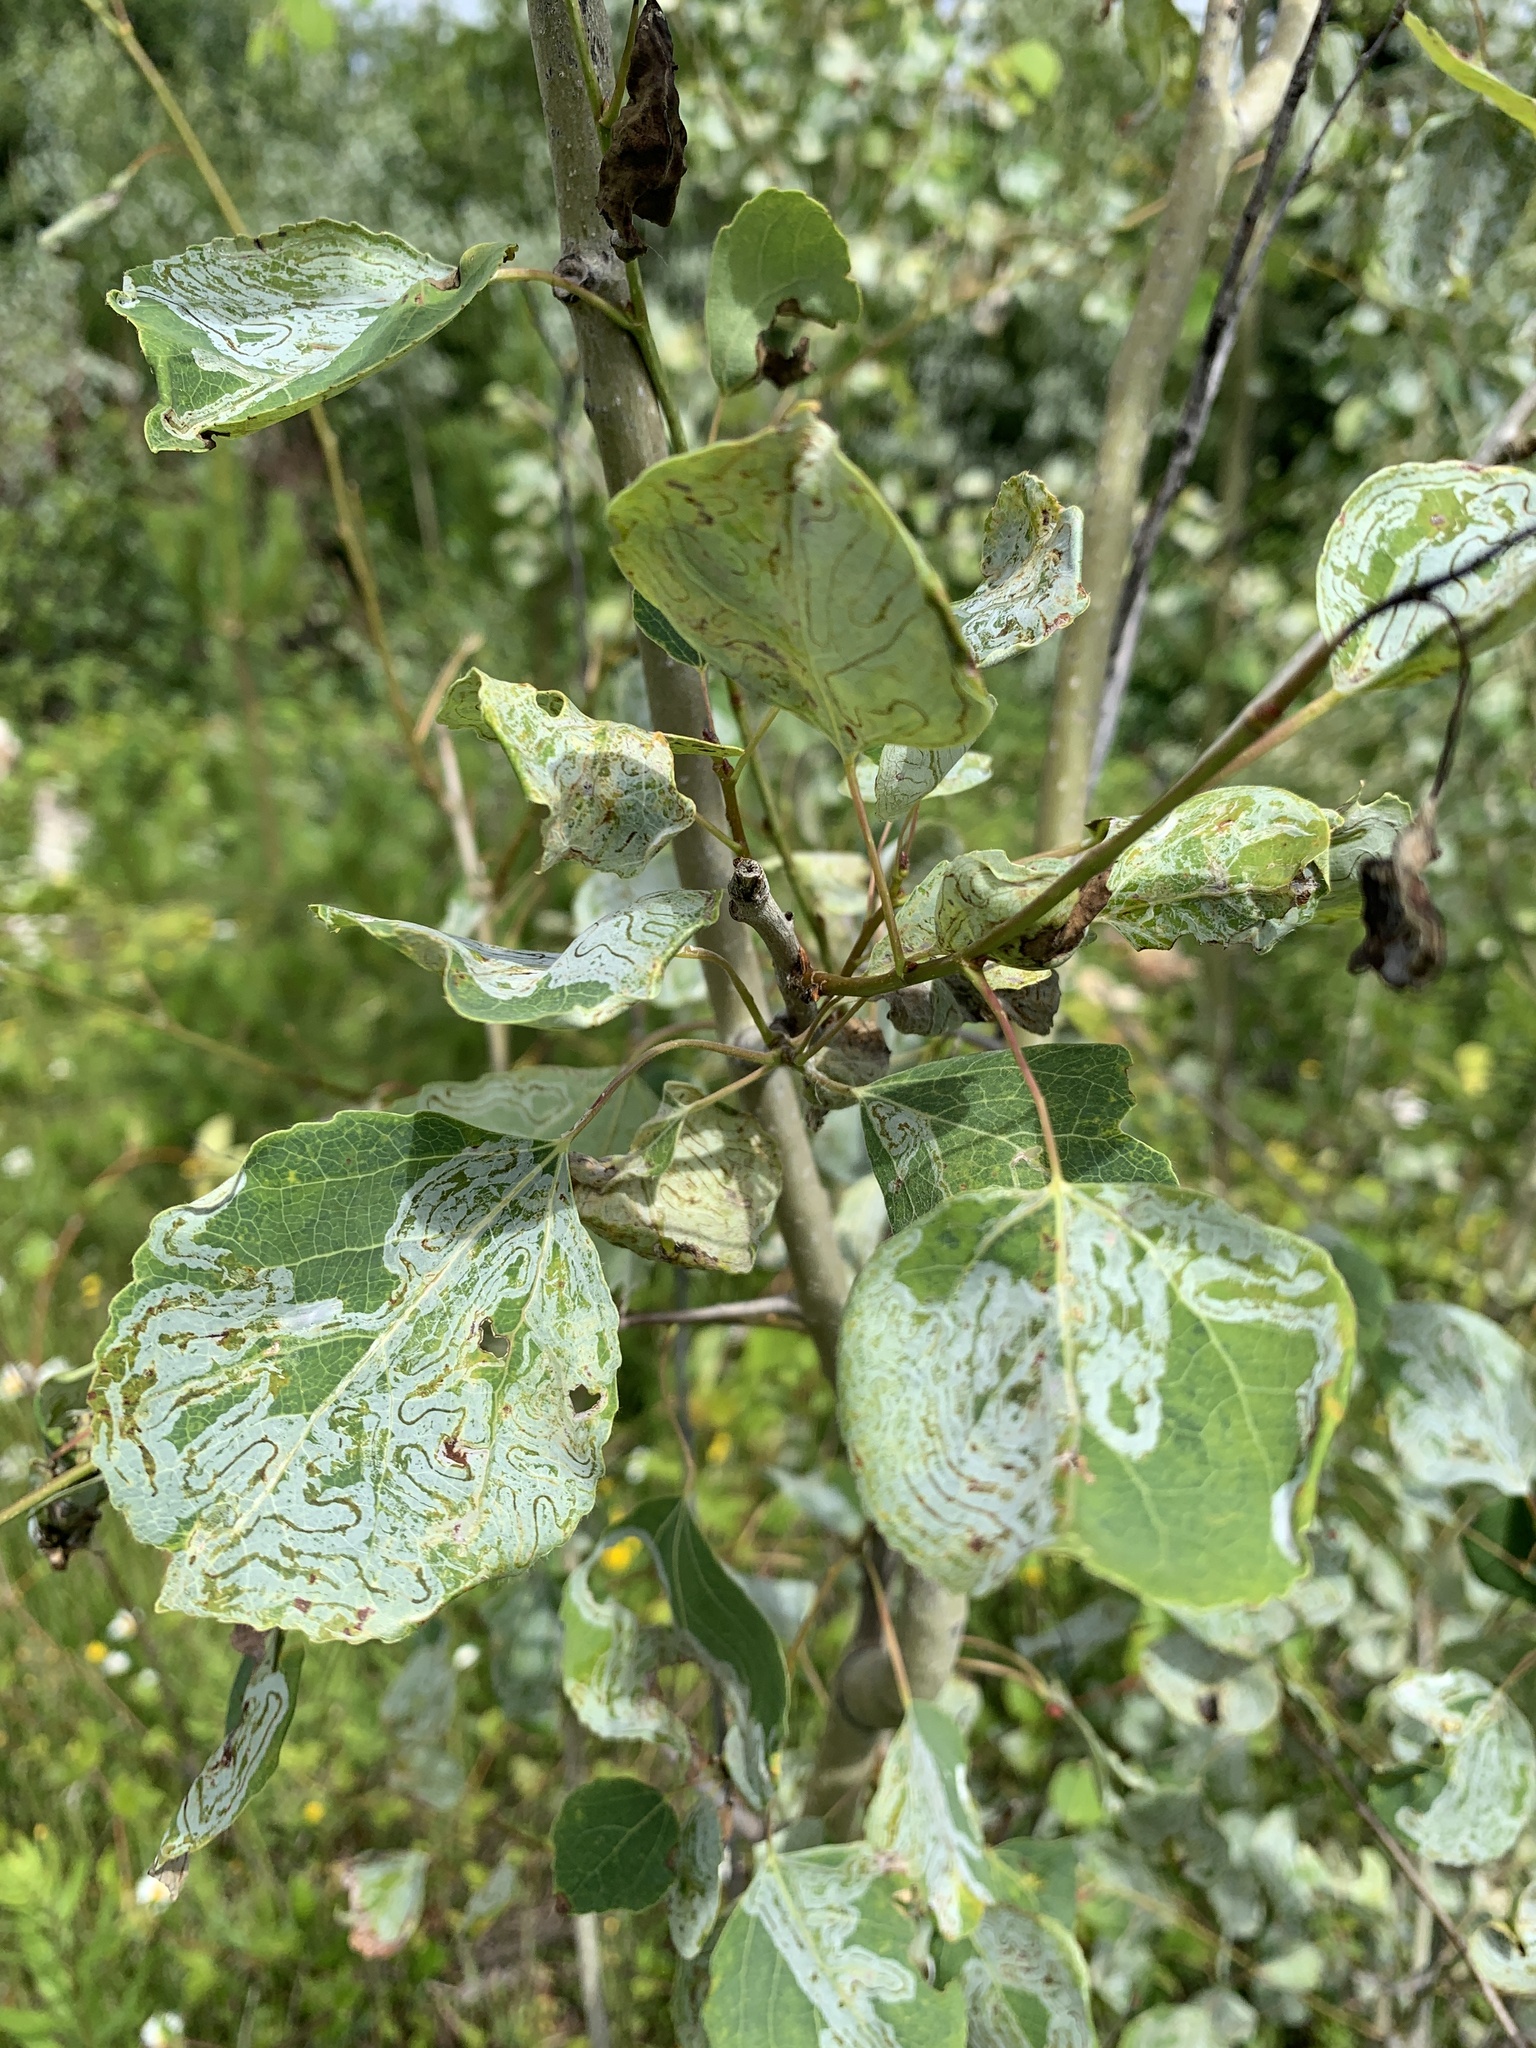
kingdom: Animalia
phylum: Arthropoda
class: Insecta
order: Lepidoptera
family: Gracillariidae
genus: Phyllocnistis
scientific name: Phyllocnistis populiella
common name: Aspen serpentine leafminer moth
